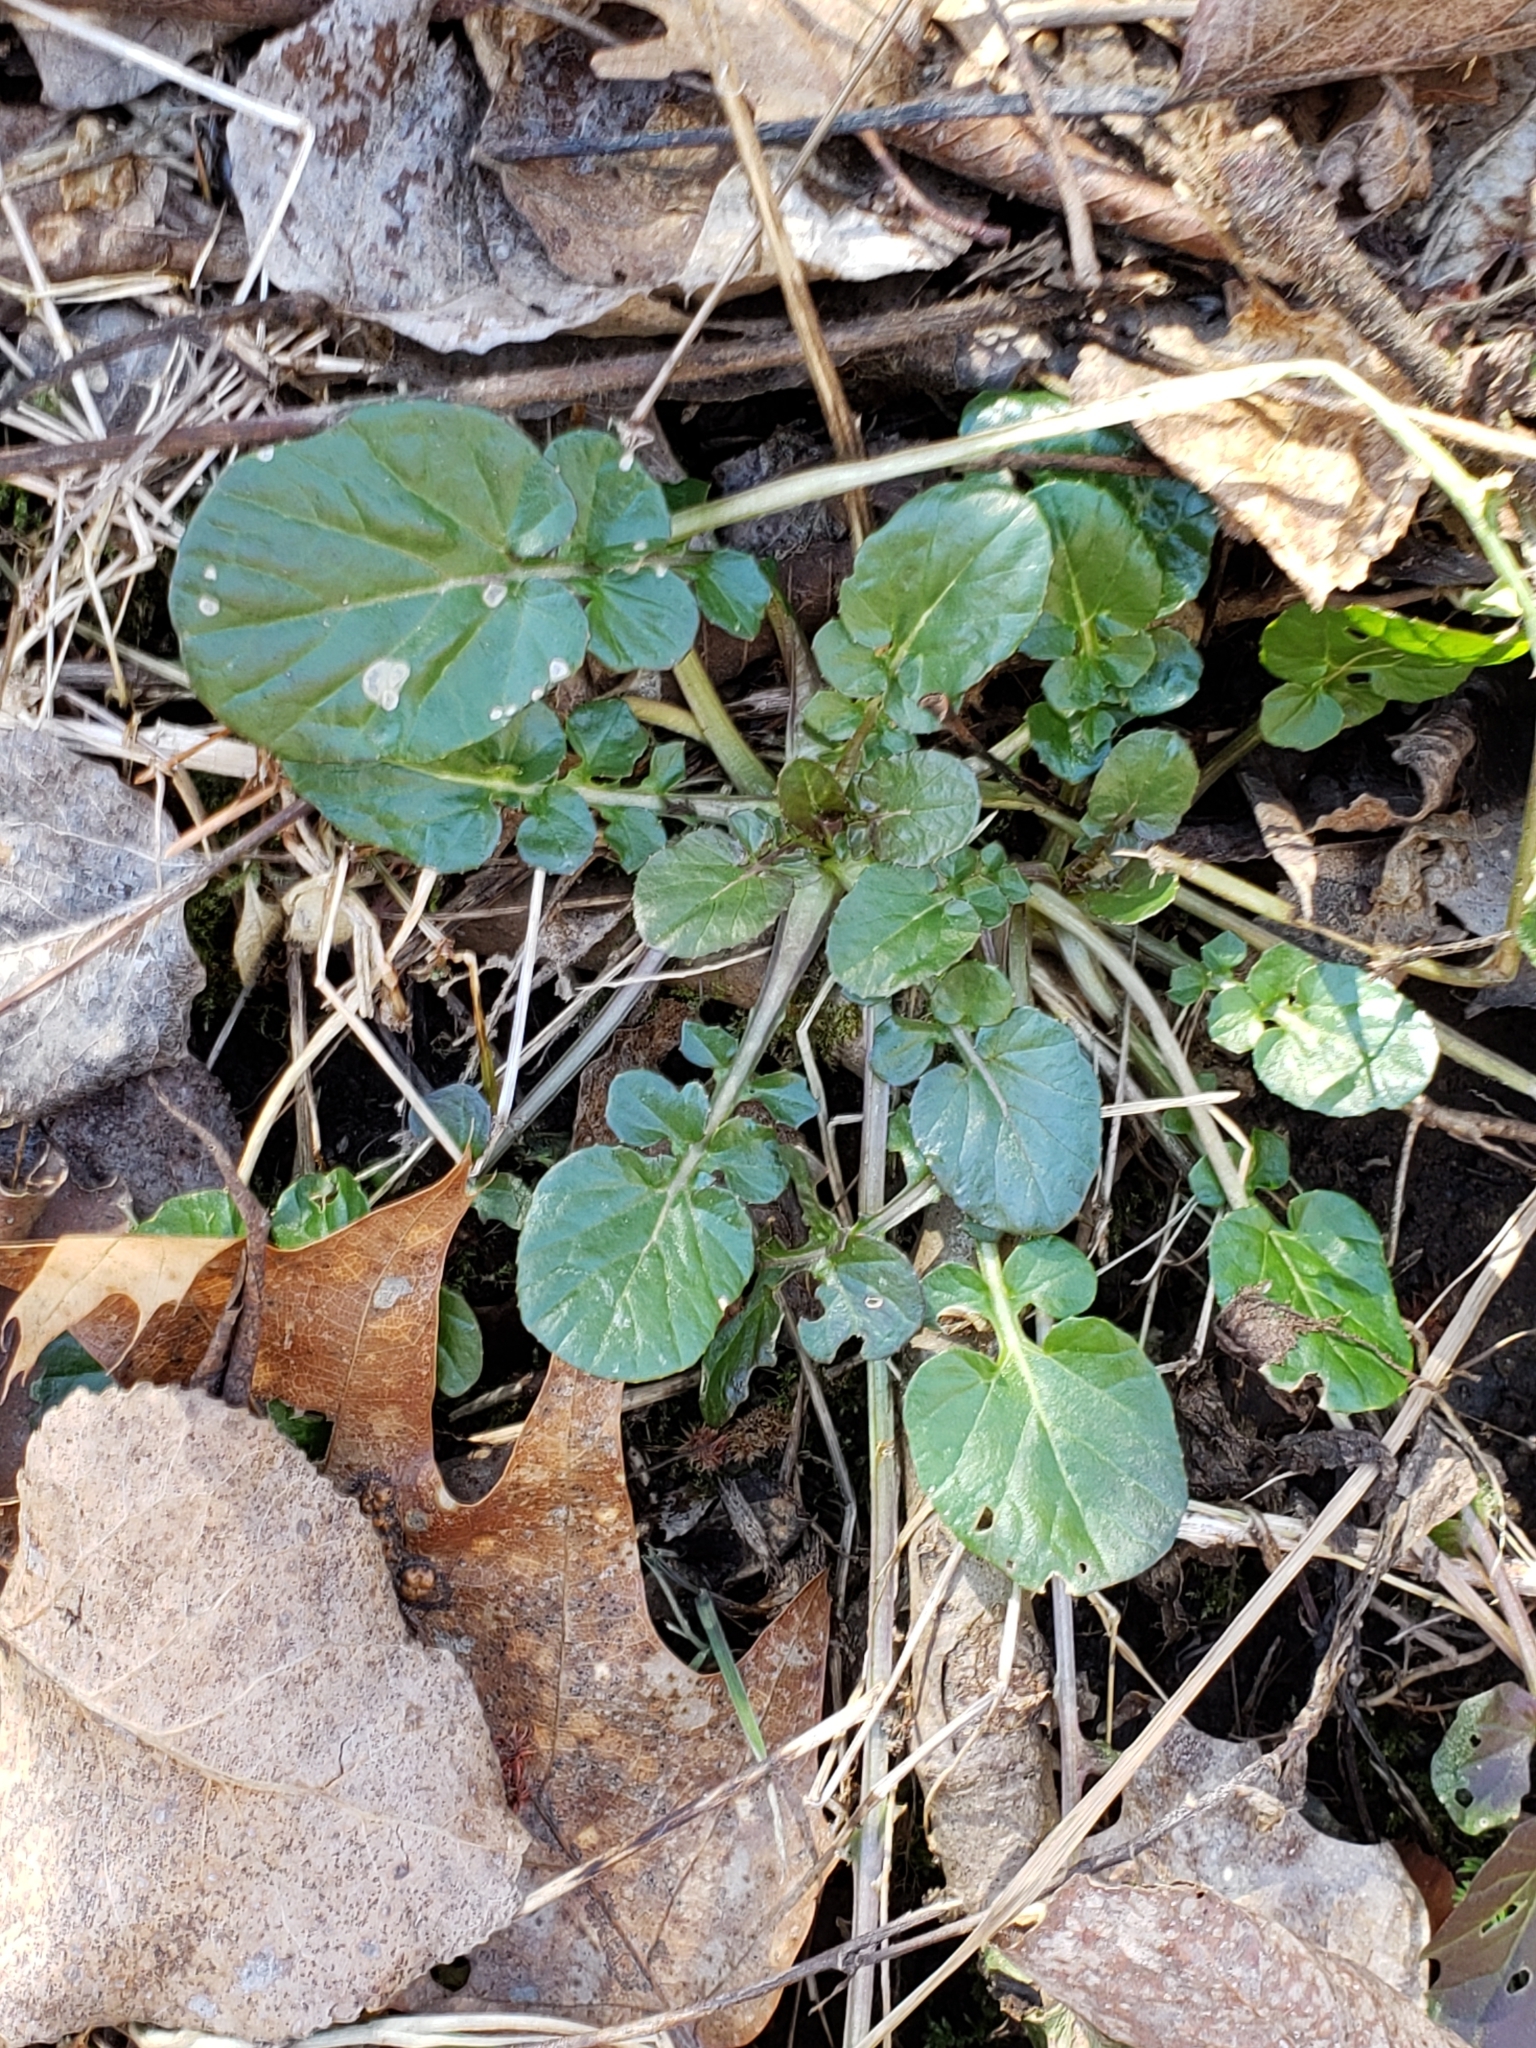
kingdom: Plantae
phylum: Tracheophyta
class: Magnoliopsida
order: Brassicales
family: Brassicaceae
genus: Barbarea
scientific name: Barbarea vulgaris
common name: Cressy-greens
